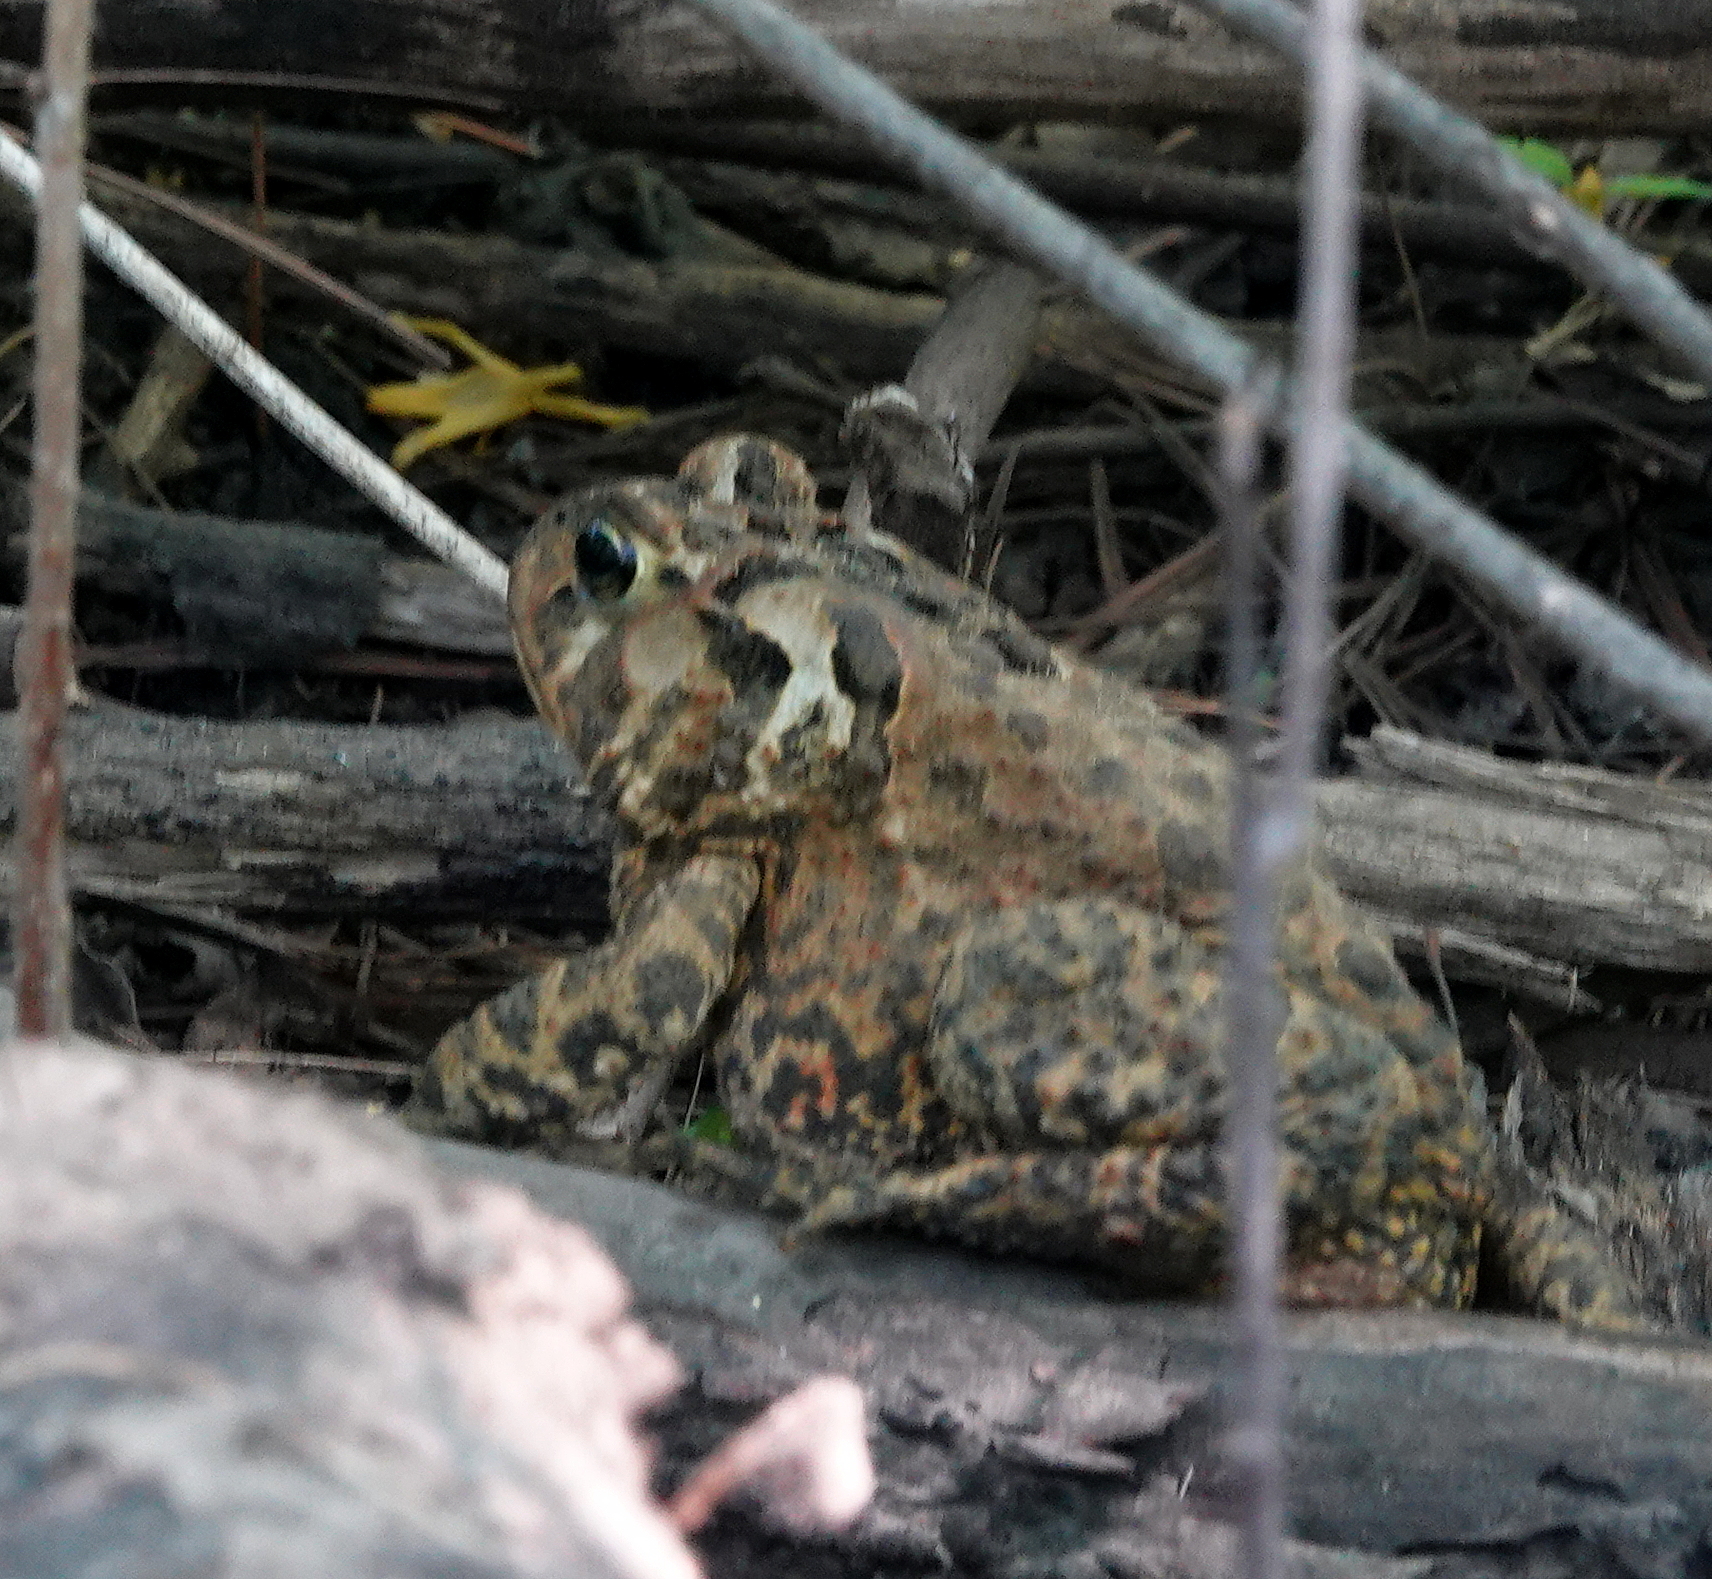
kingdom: Animalia
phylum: Chordata
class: Amphibia
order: Anura
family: Bufonidae
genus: Anaxyrus
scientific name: Anaxyrus americanus
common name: American toad
